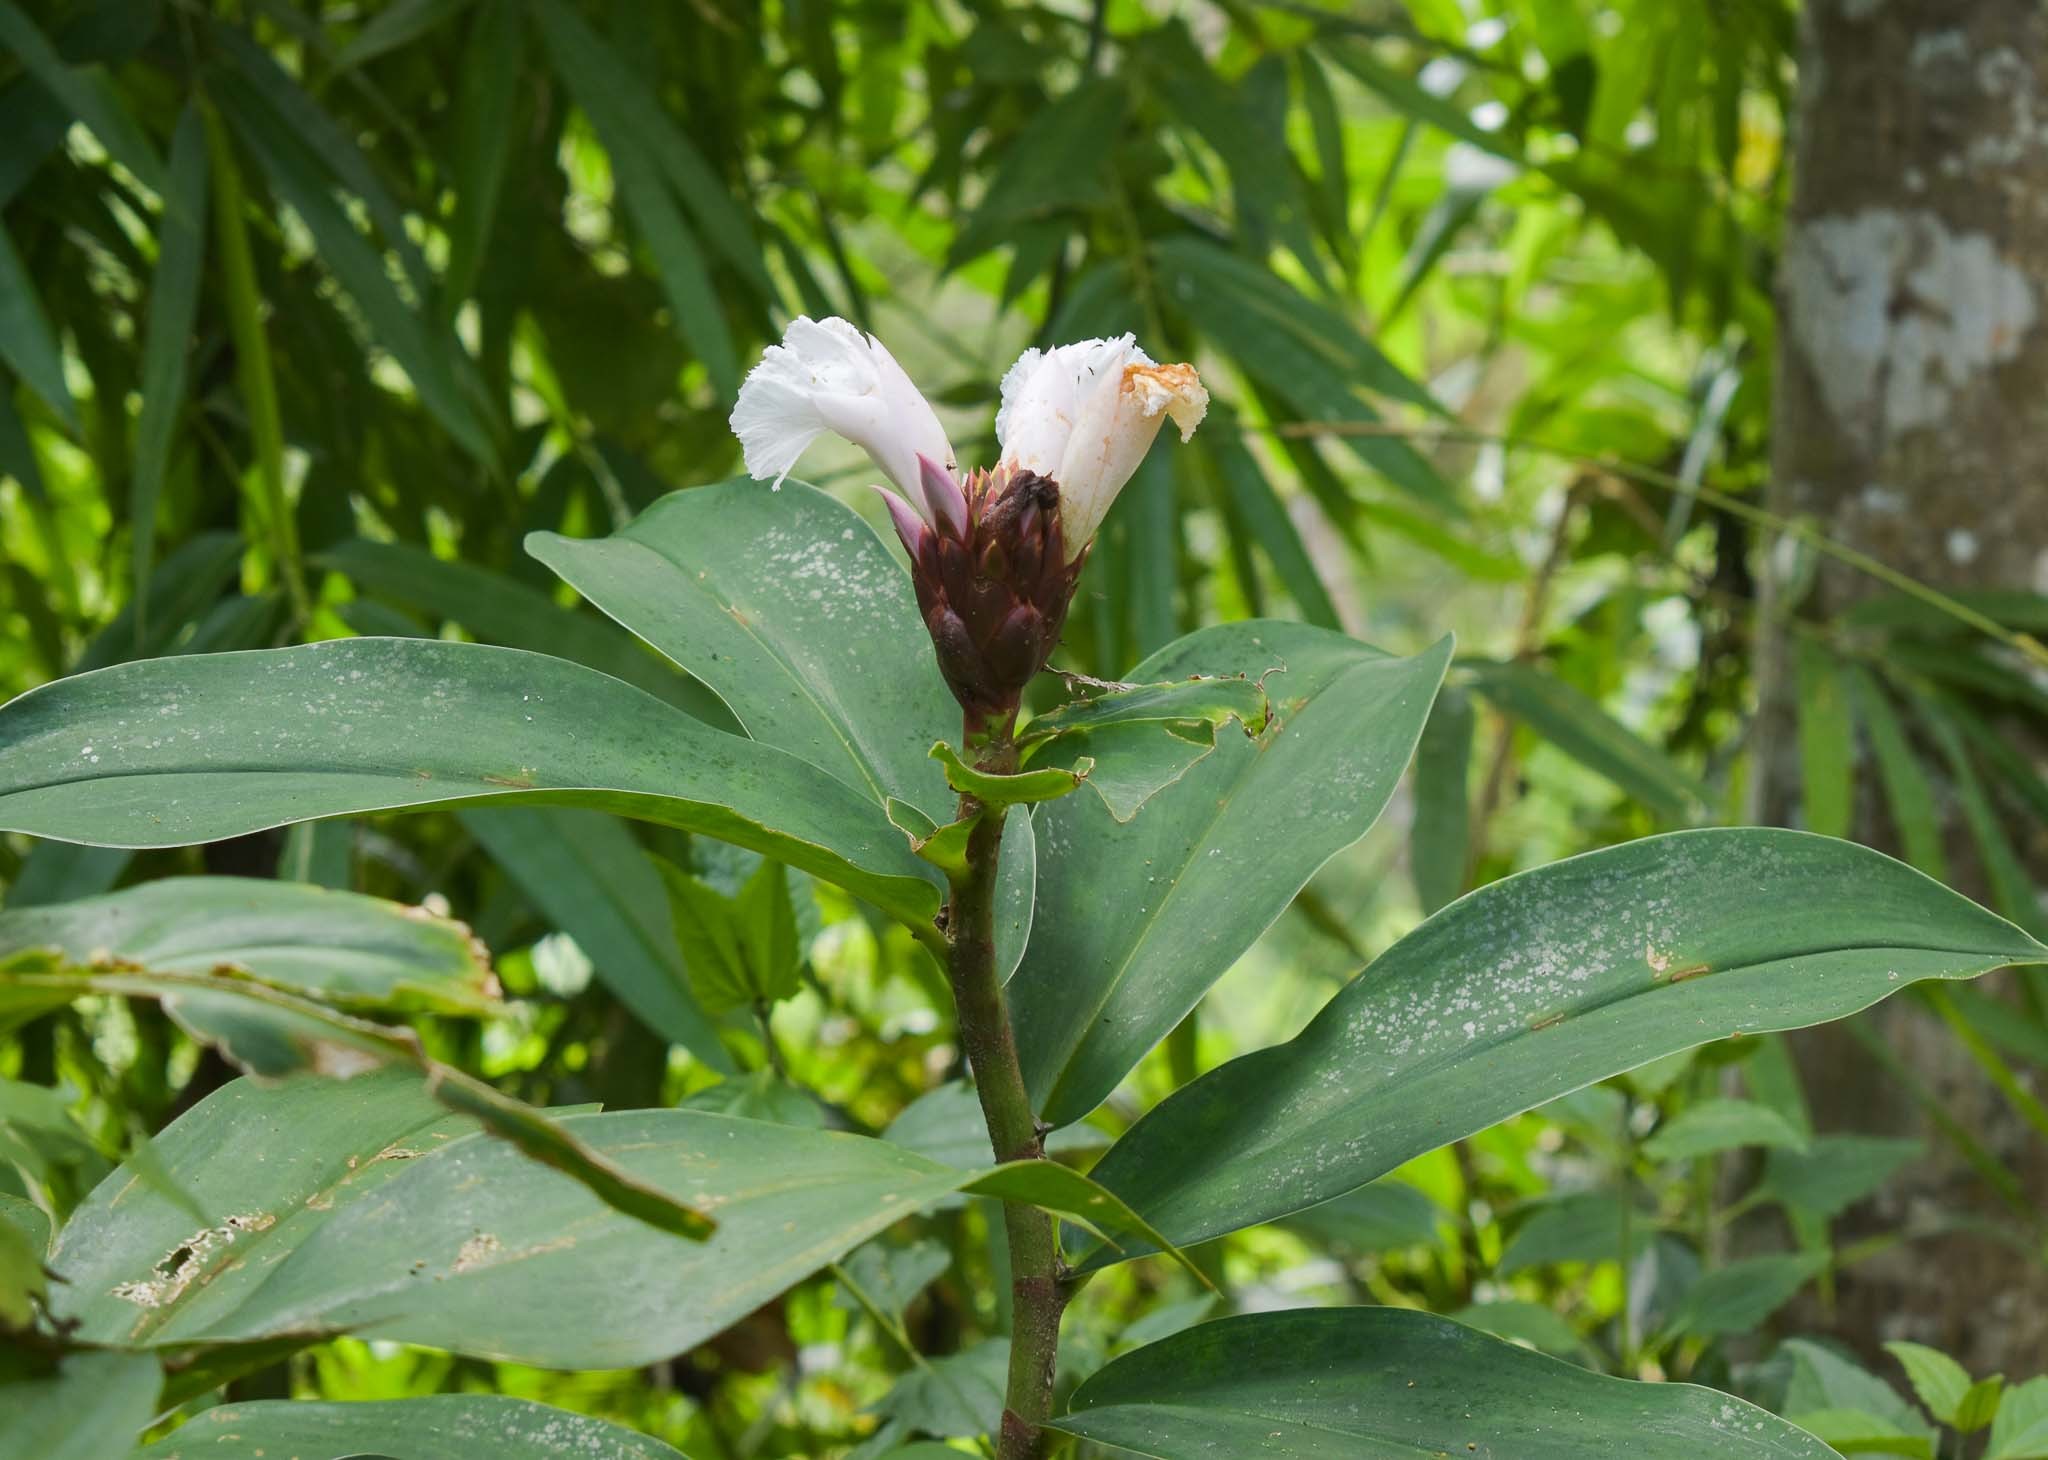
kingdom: Plantae
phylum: Tracheophyta
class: Liliopsida
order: Zingiberales
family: Costaceae
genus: Hellenia
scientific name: Hellenia speciosa
